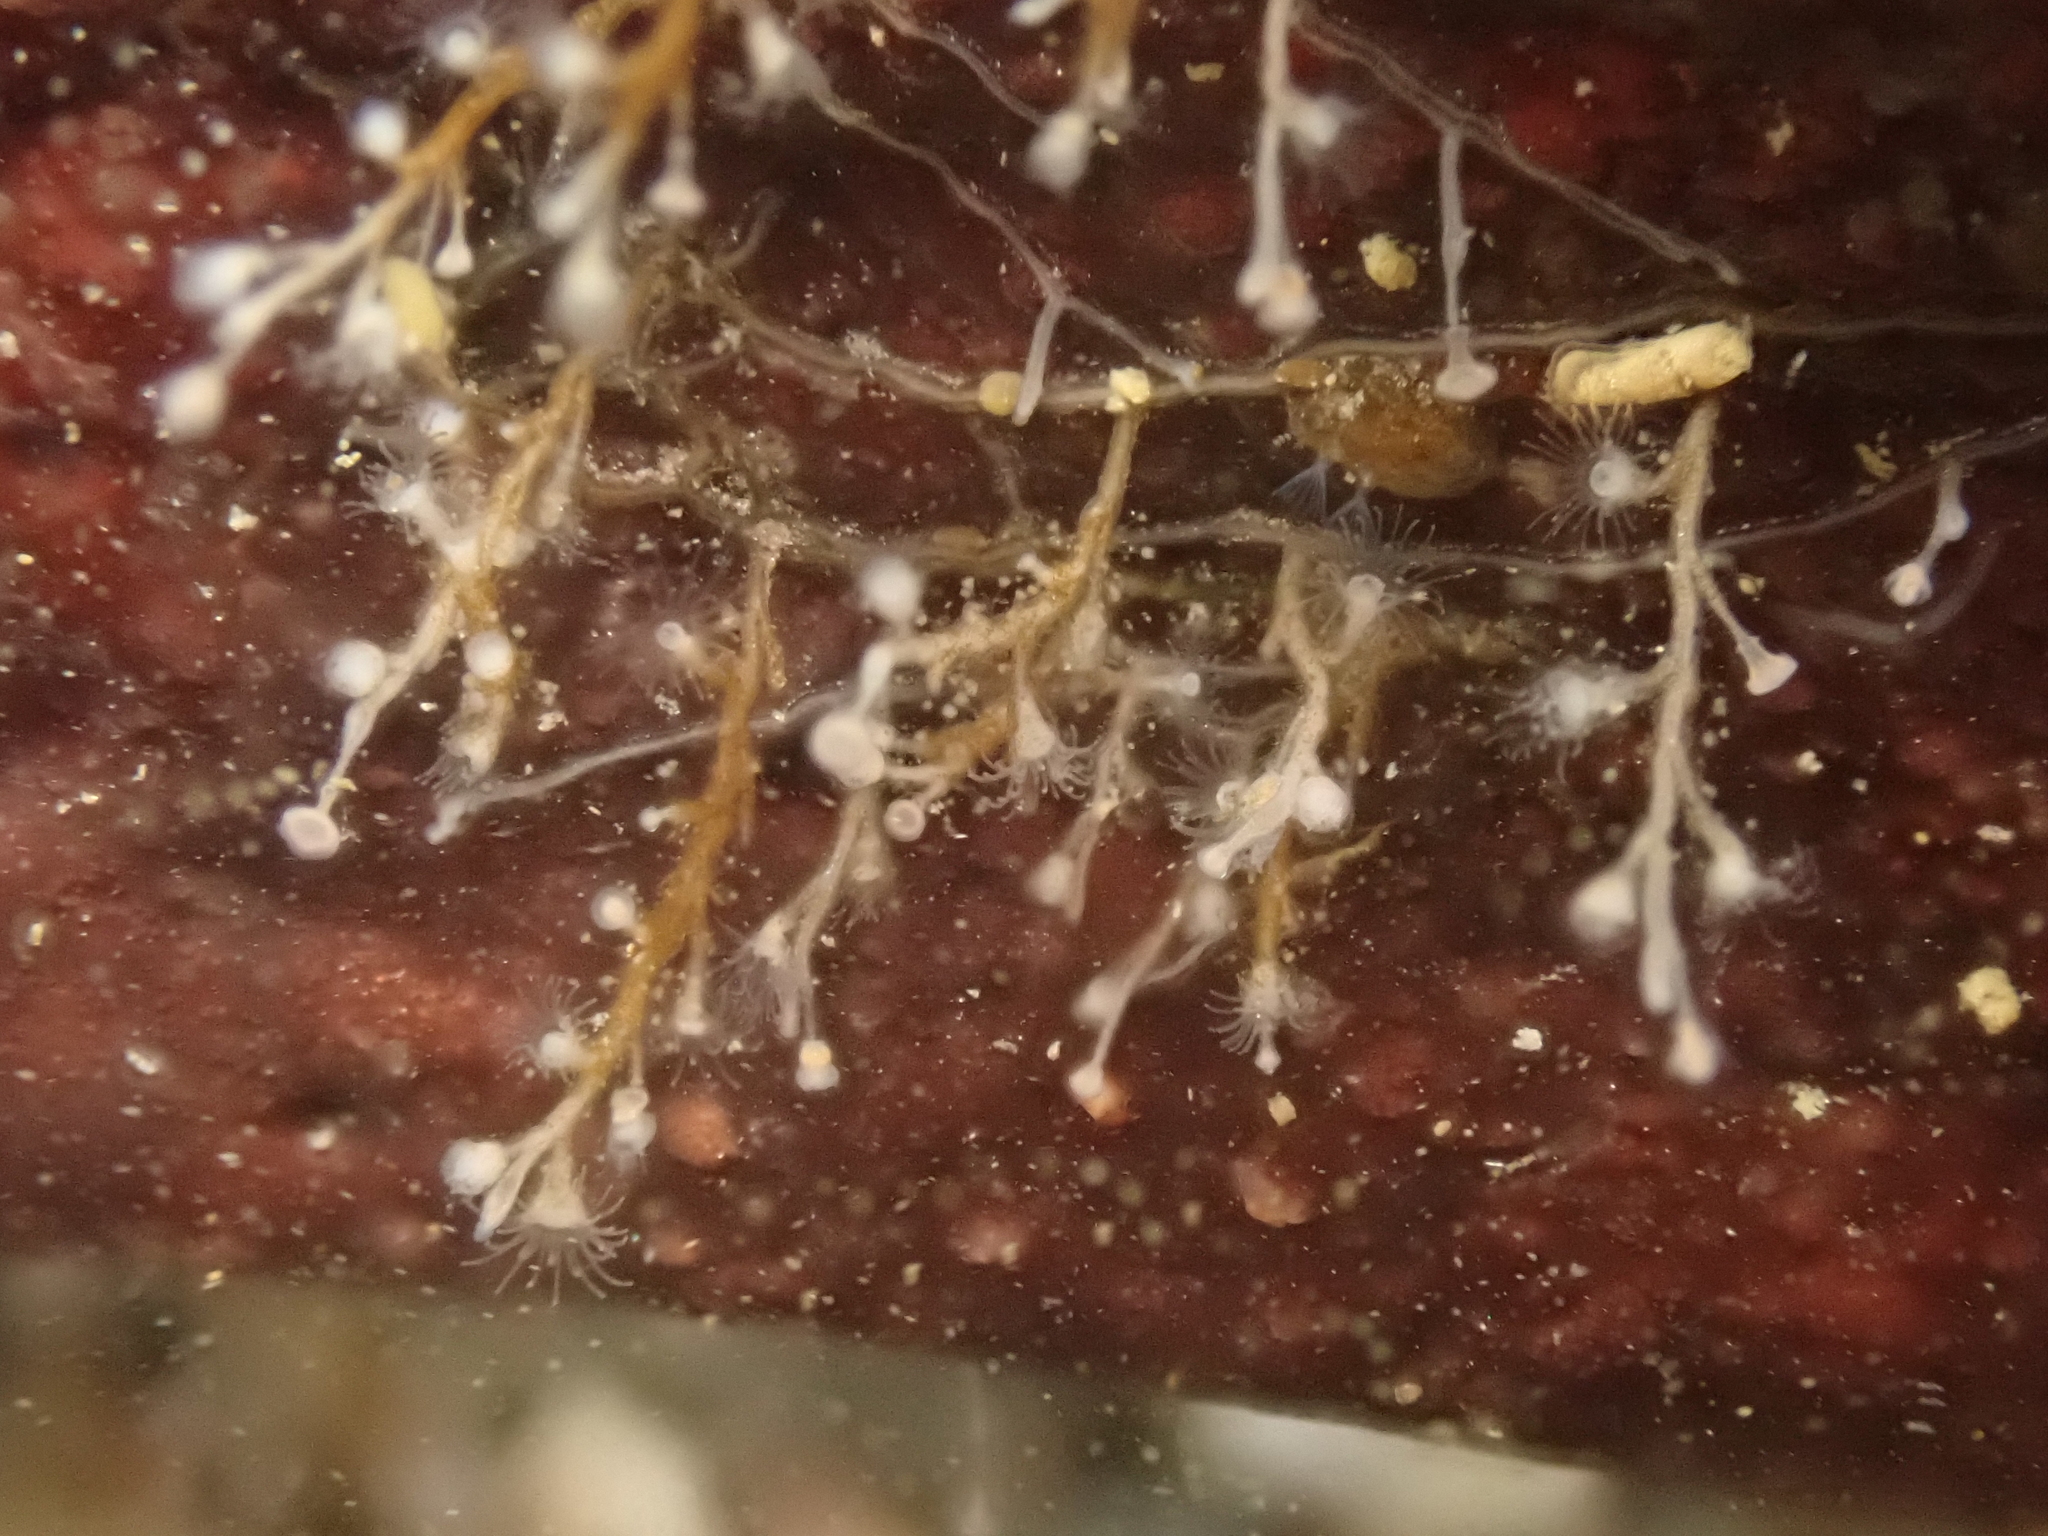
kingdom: Animalia
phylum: Cnidaria
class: Hydrozoa
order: Leptothecata
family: Campanulariidae
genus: Obelia
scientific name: Obelia geniculata
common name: Bell hydroid
